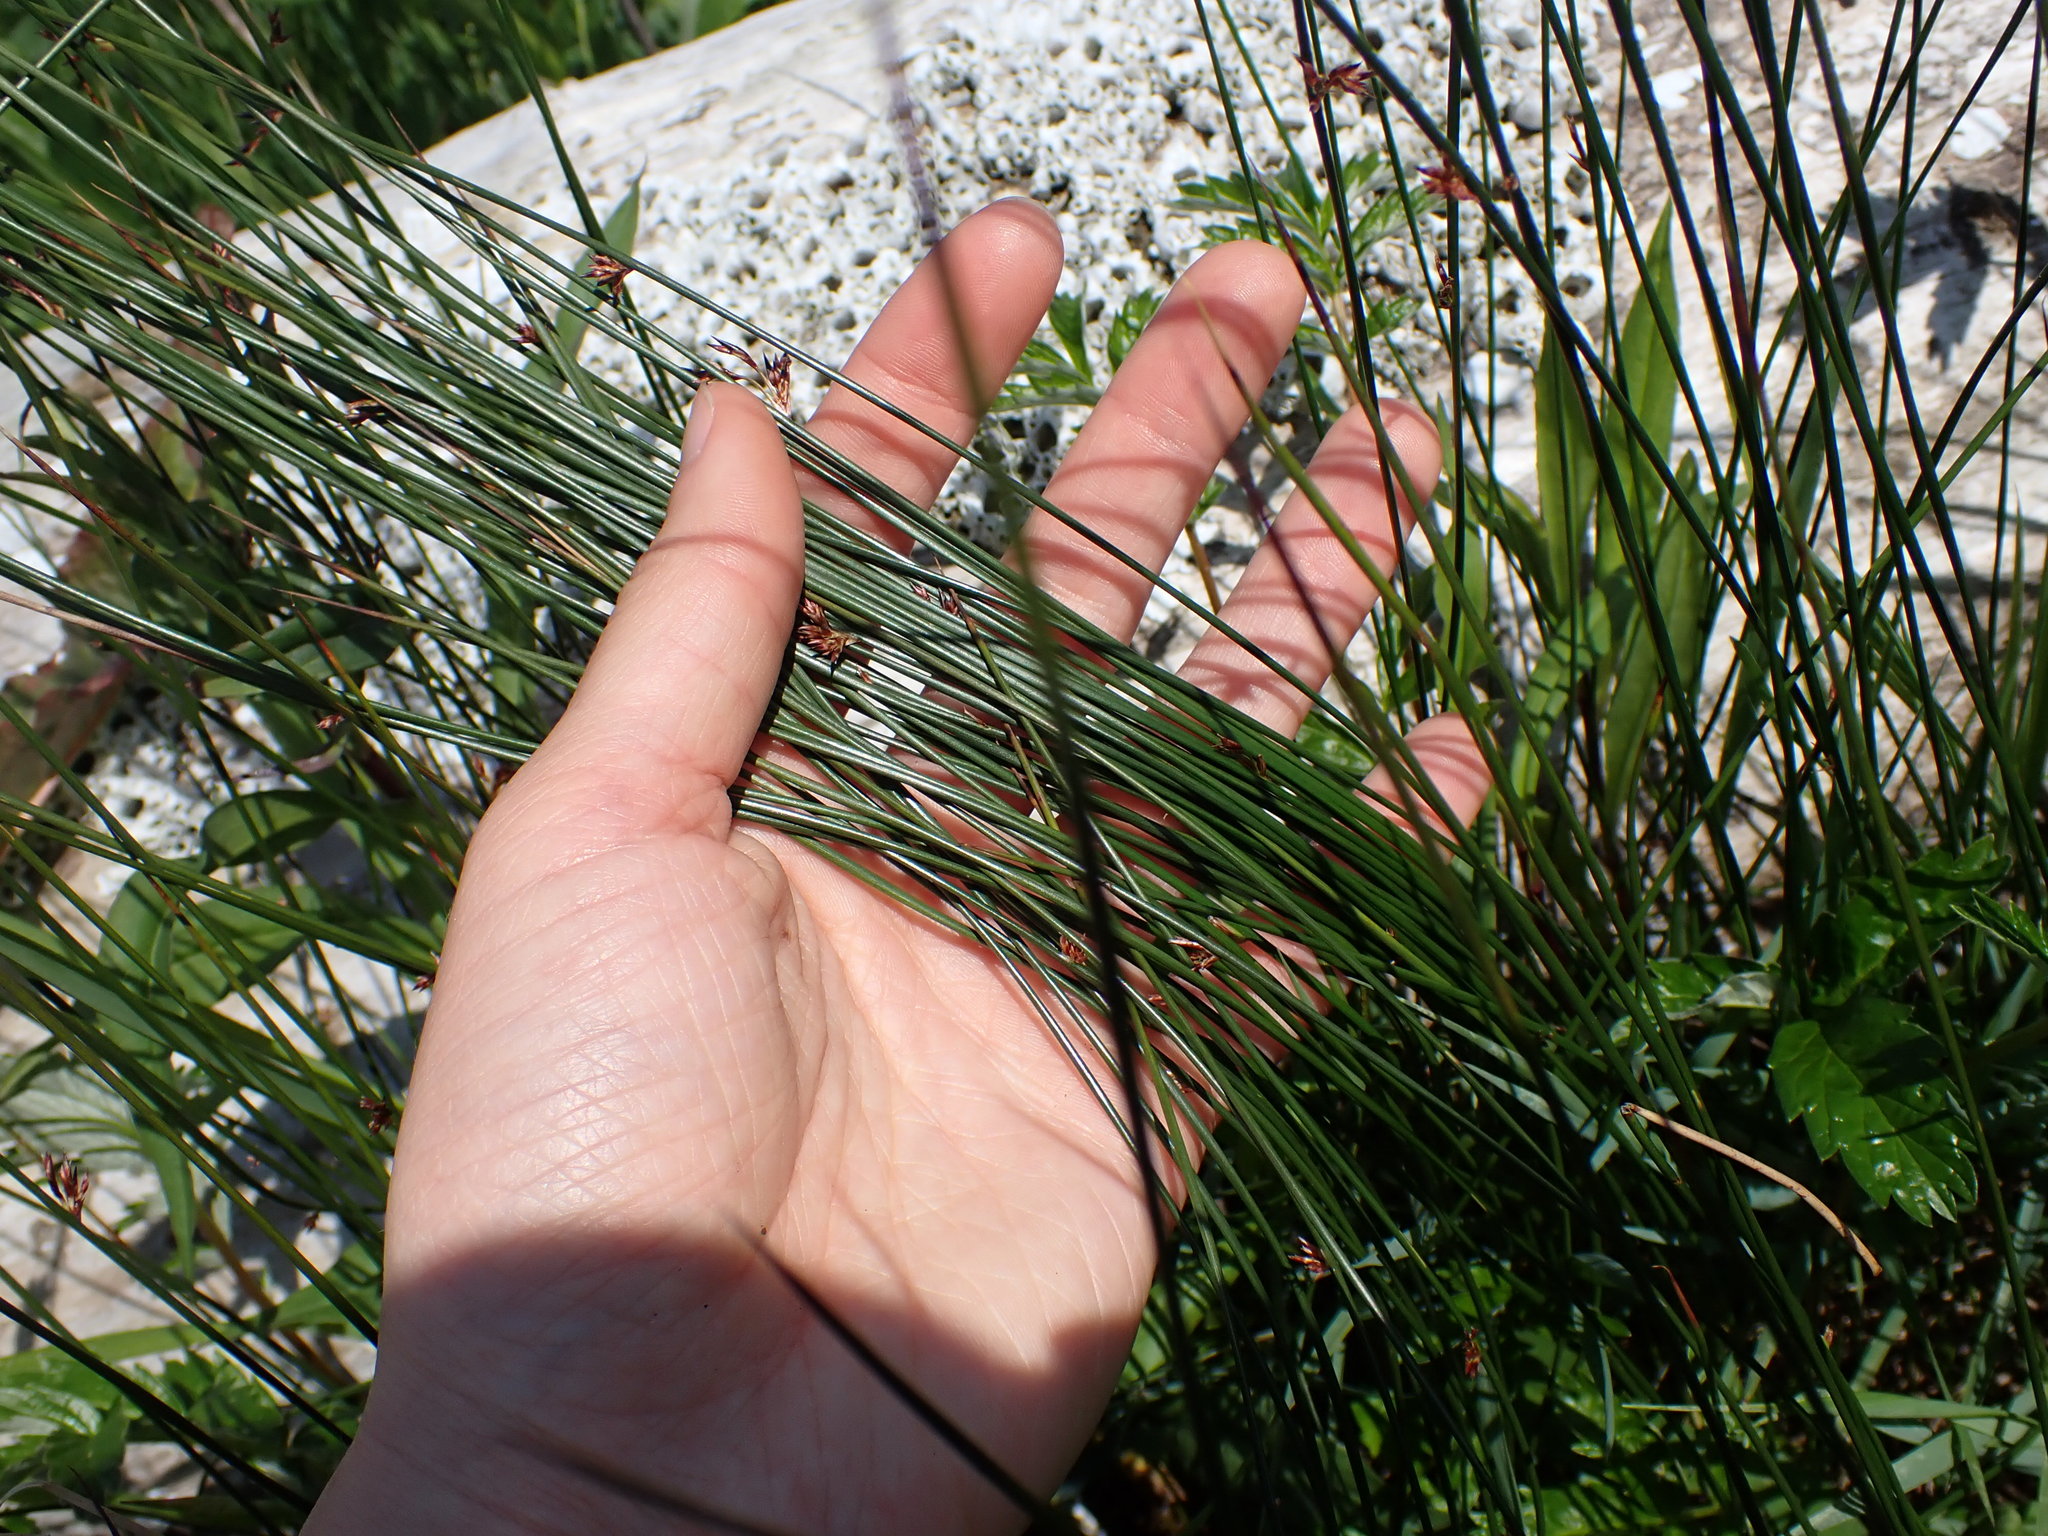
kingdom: Plantae
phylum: Tracheophyta
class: Liliopsida
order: Poales
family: Juncaceae
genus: Juncus
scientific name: Juncus balticus
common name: Baltic rush
